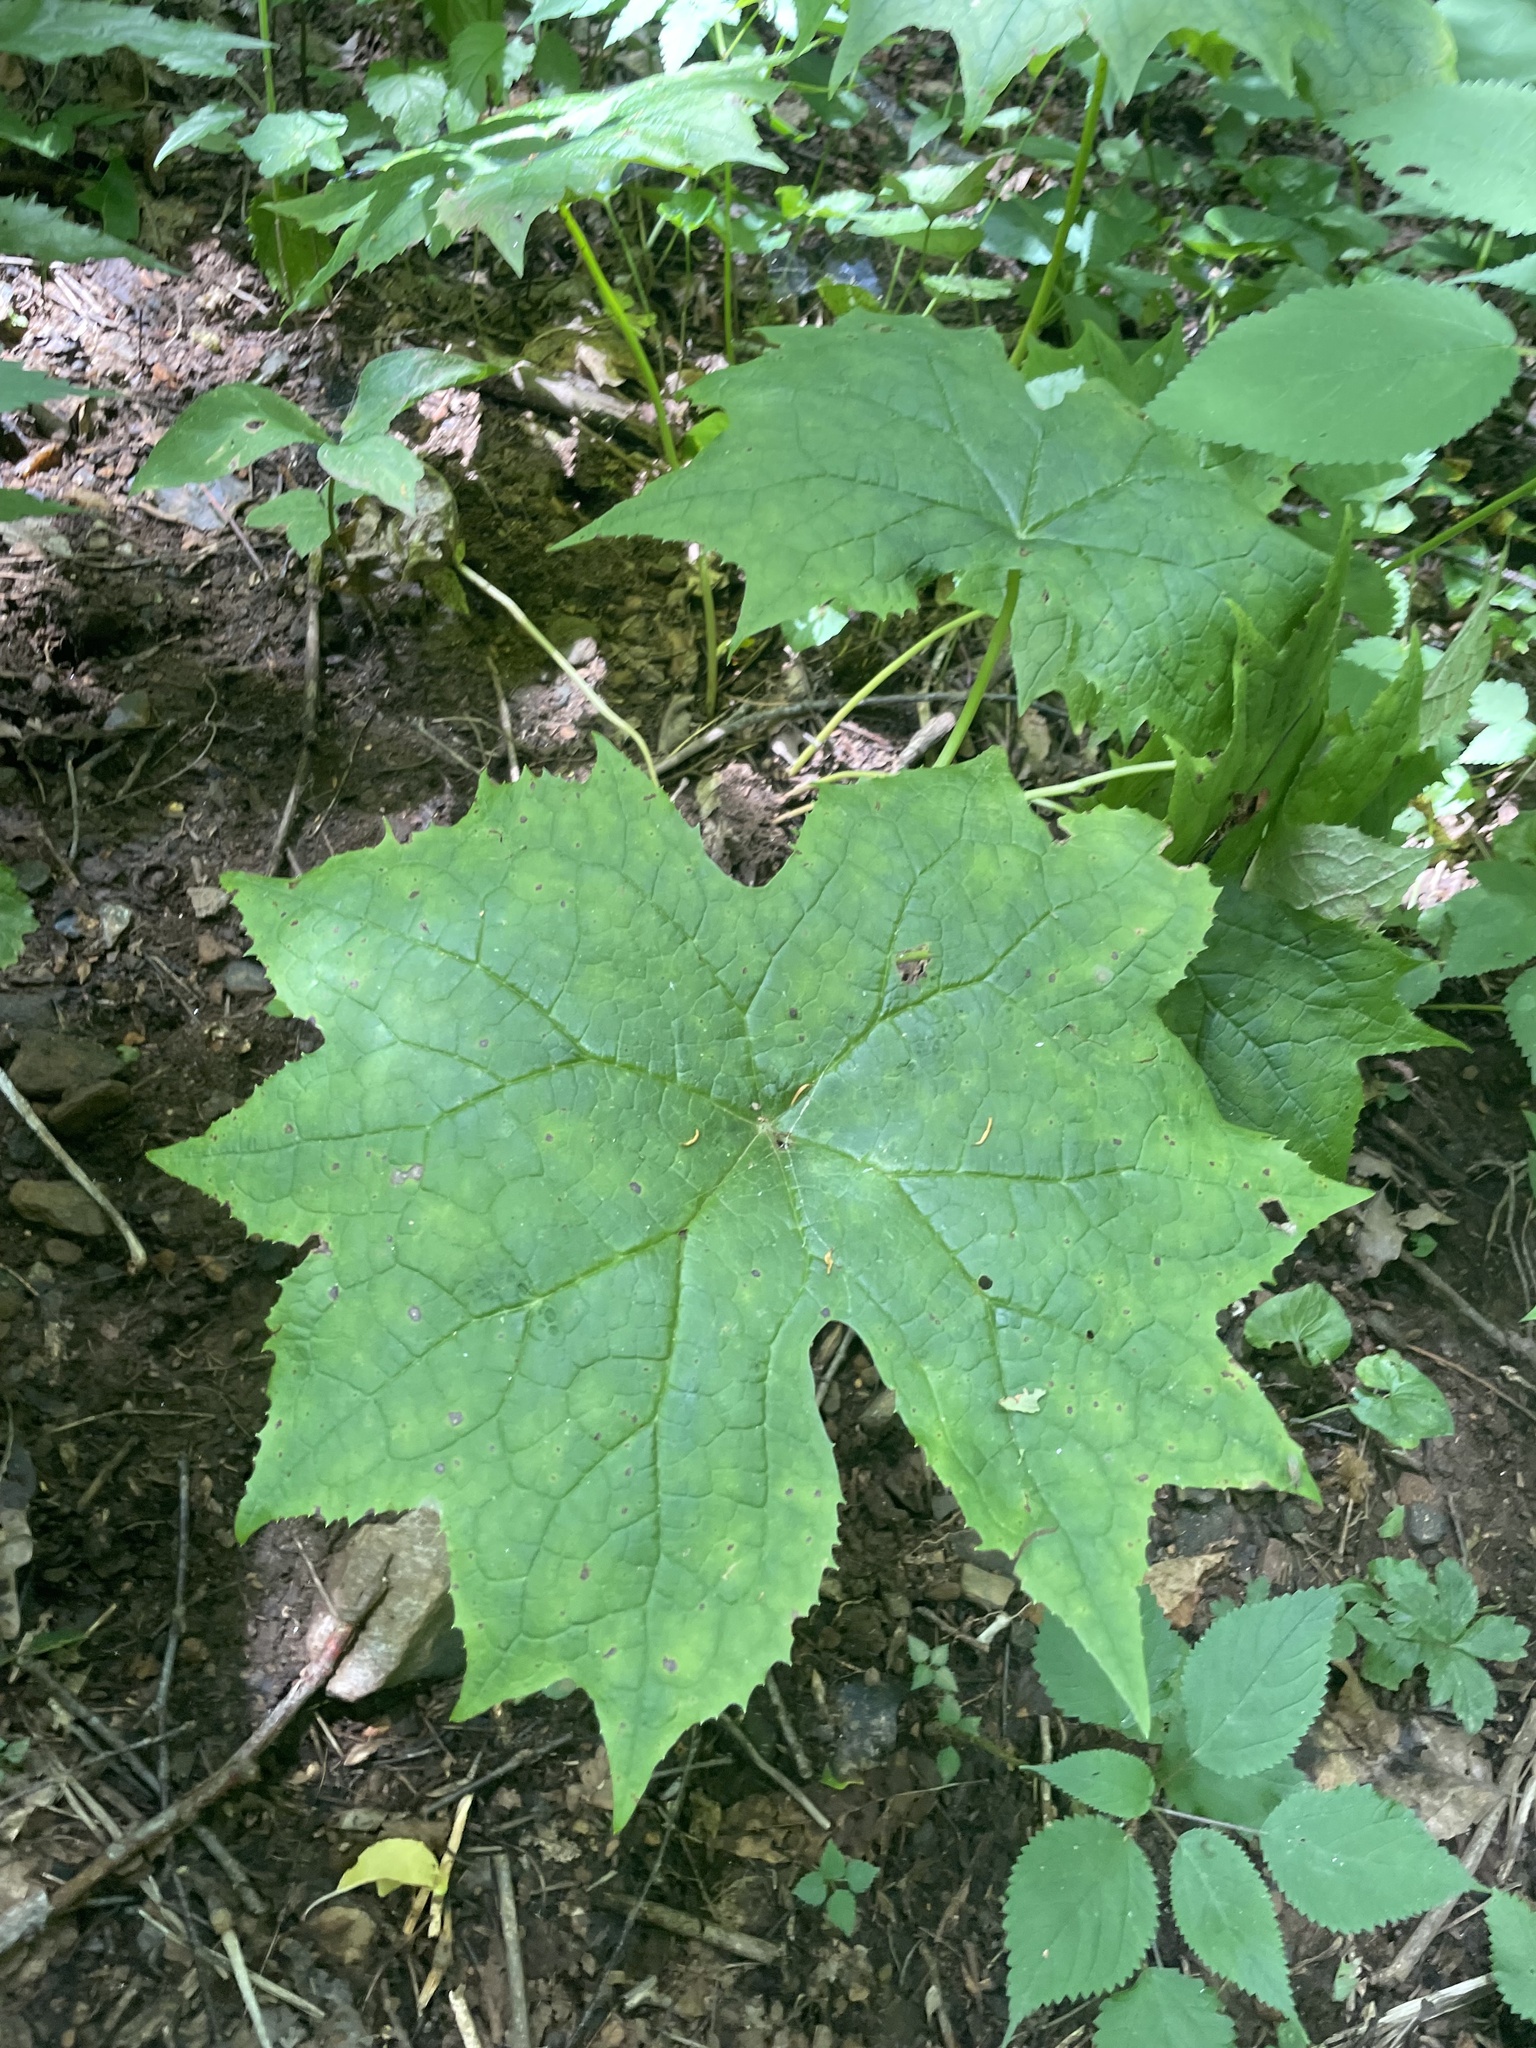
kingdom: Plantae
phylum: Tracheophyta
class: Magnoliopsida
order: Ranunculales
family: Berberidaceae
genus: Diphylleia
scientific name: Diphylleia cymosa
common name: Umbrella-leaf
